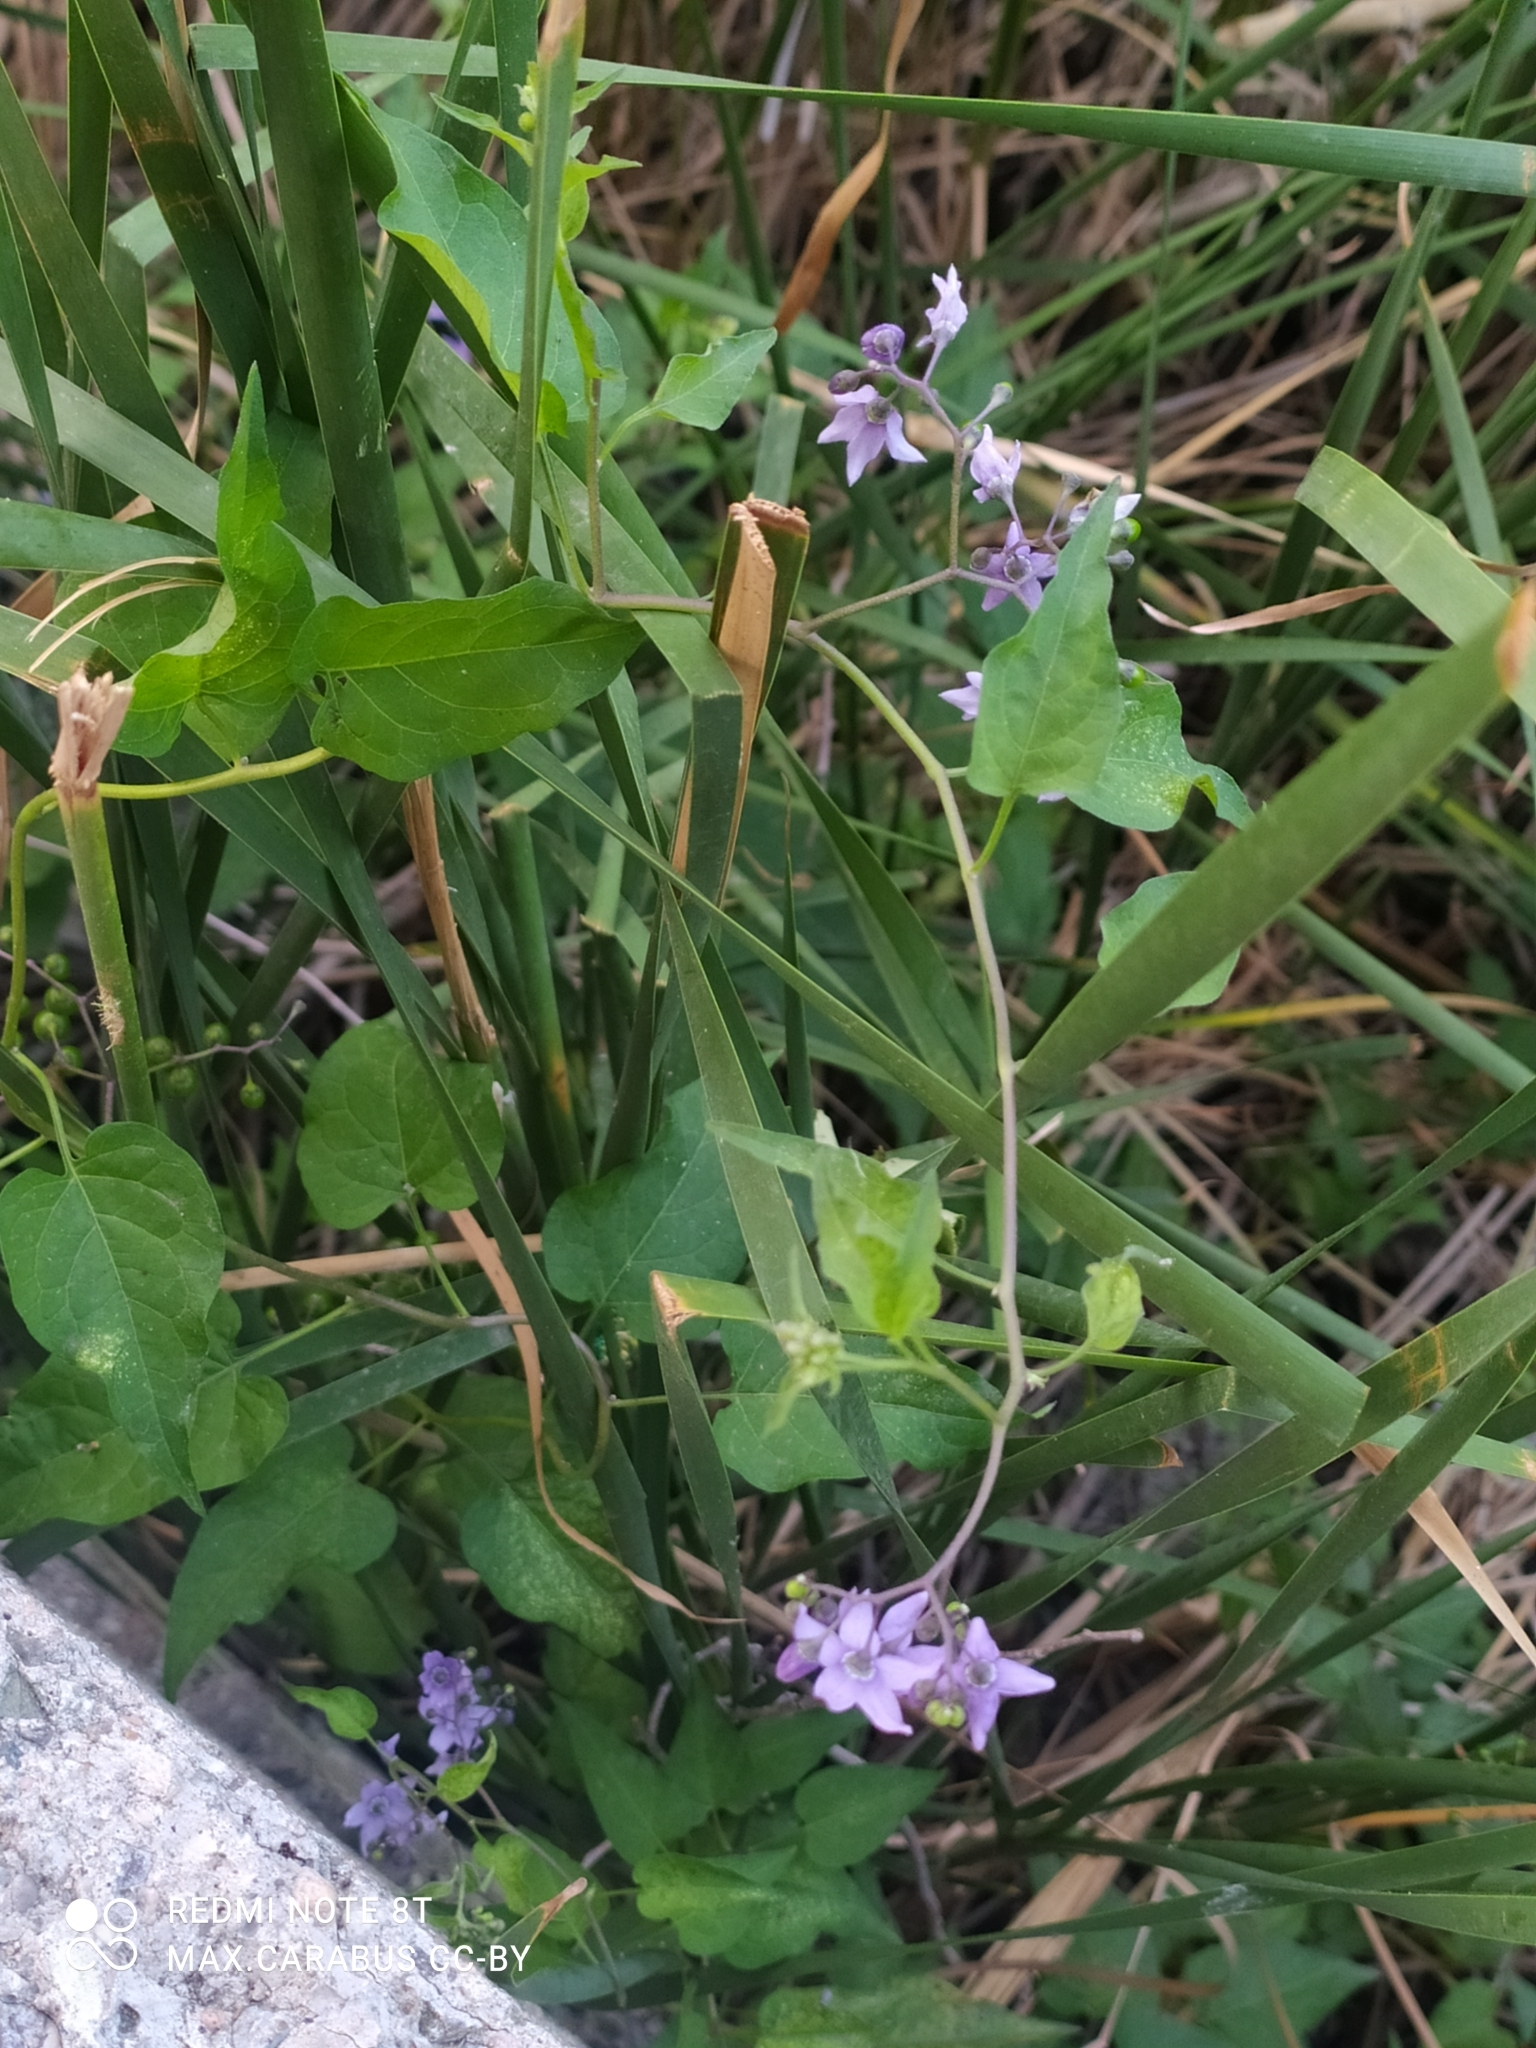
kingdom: Plantae
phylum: Tracheophyta
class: Magnoliopsida
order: Solanales
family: Solanaceae
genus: Solanum
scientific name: Solanum dulcamara
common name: Climbing nightshade
